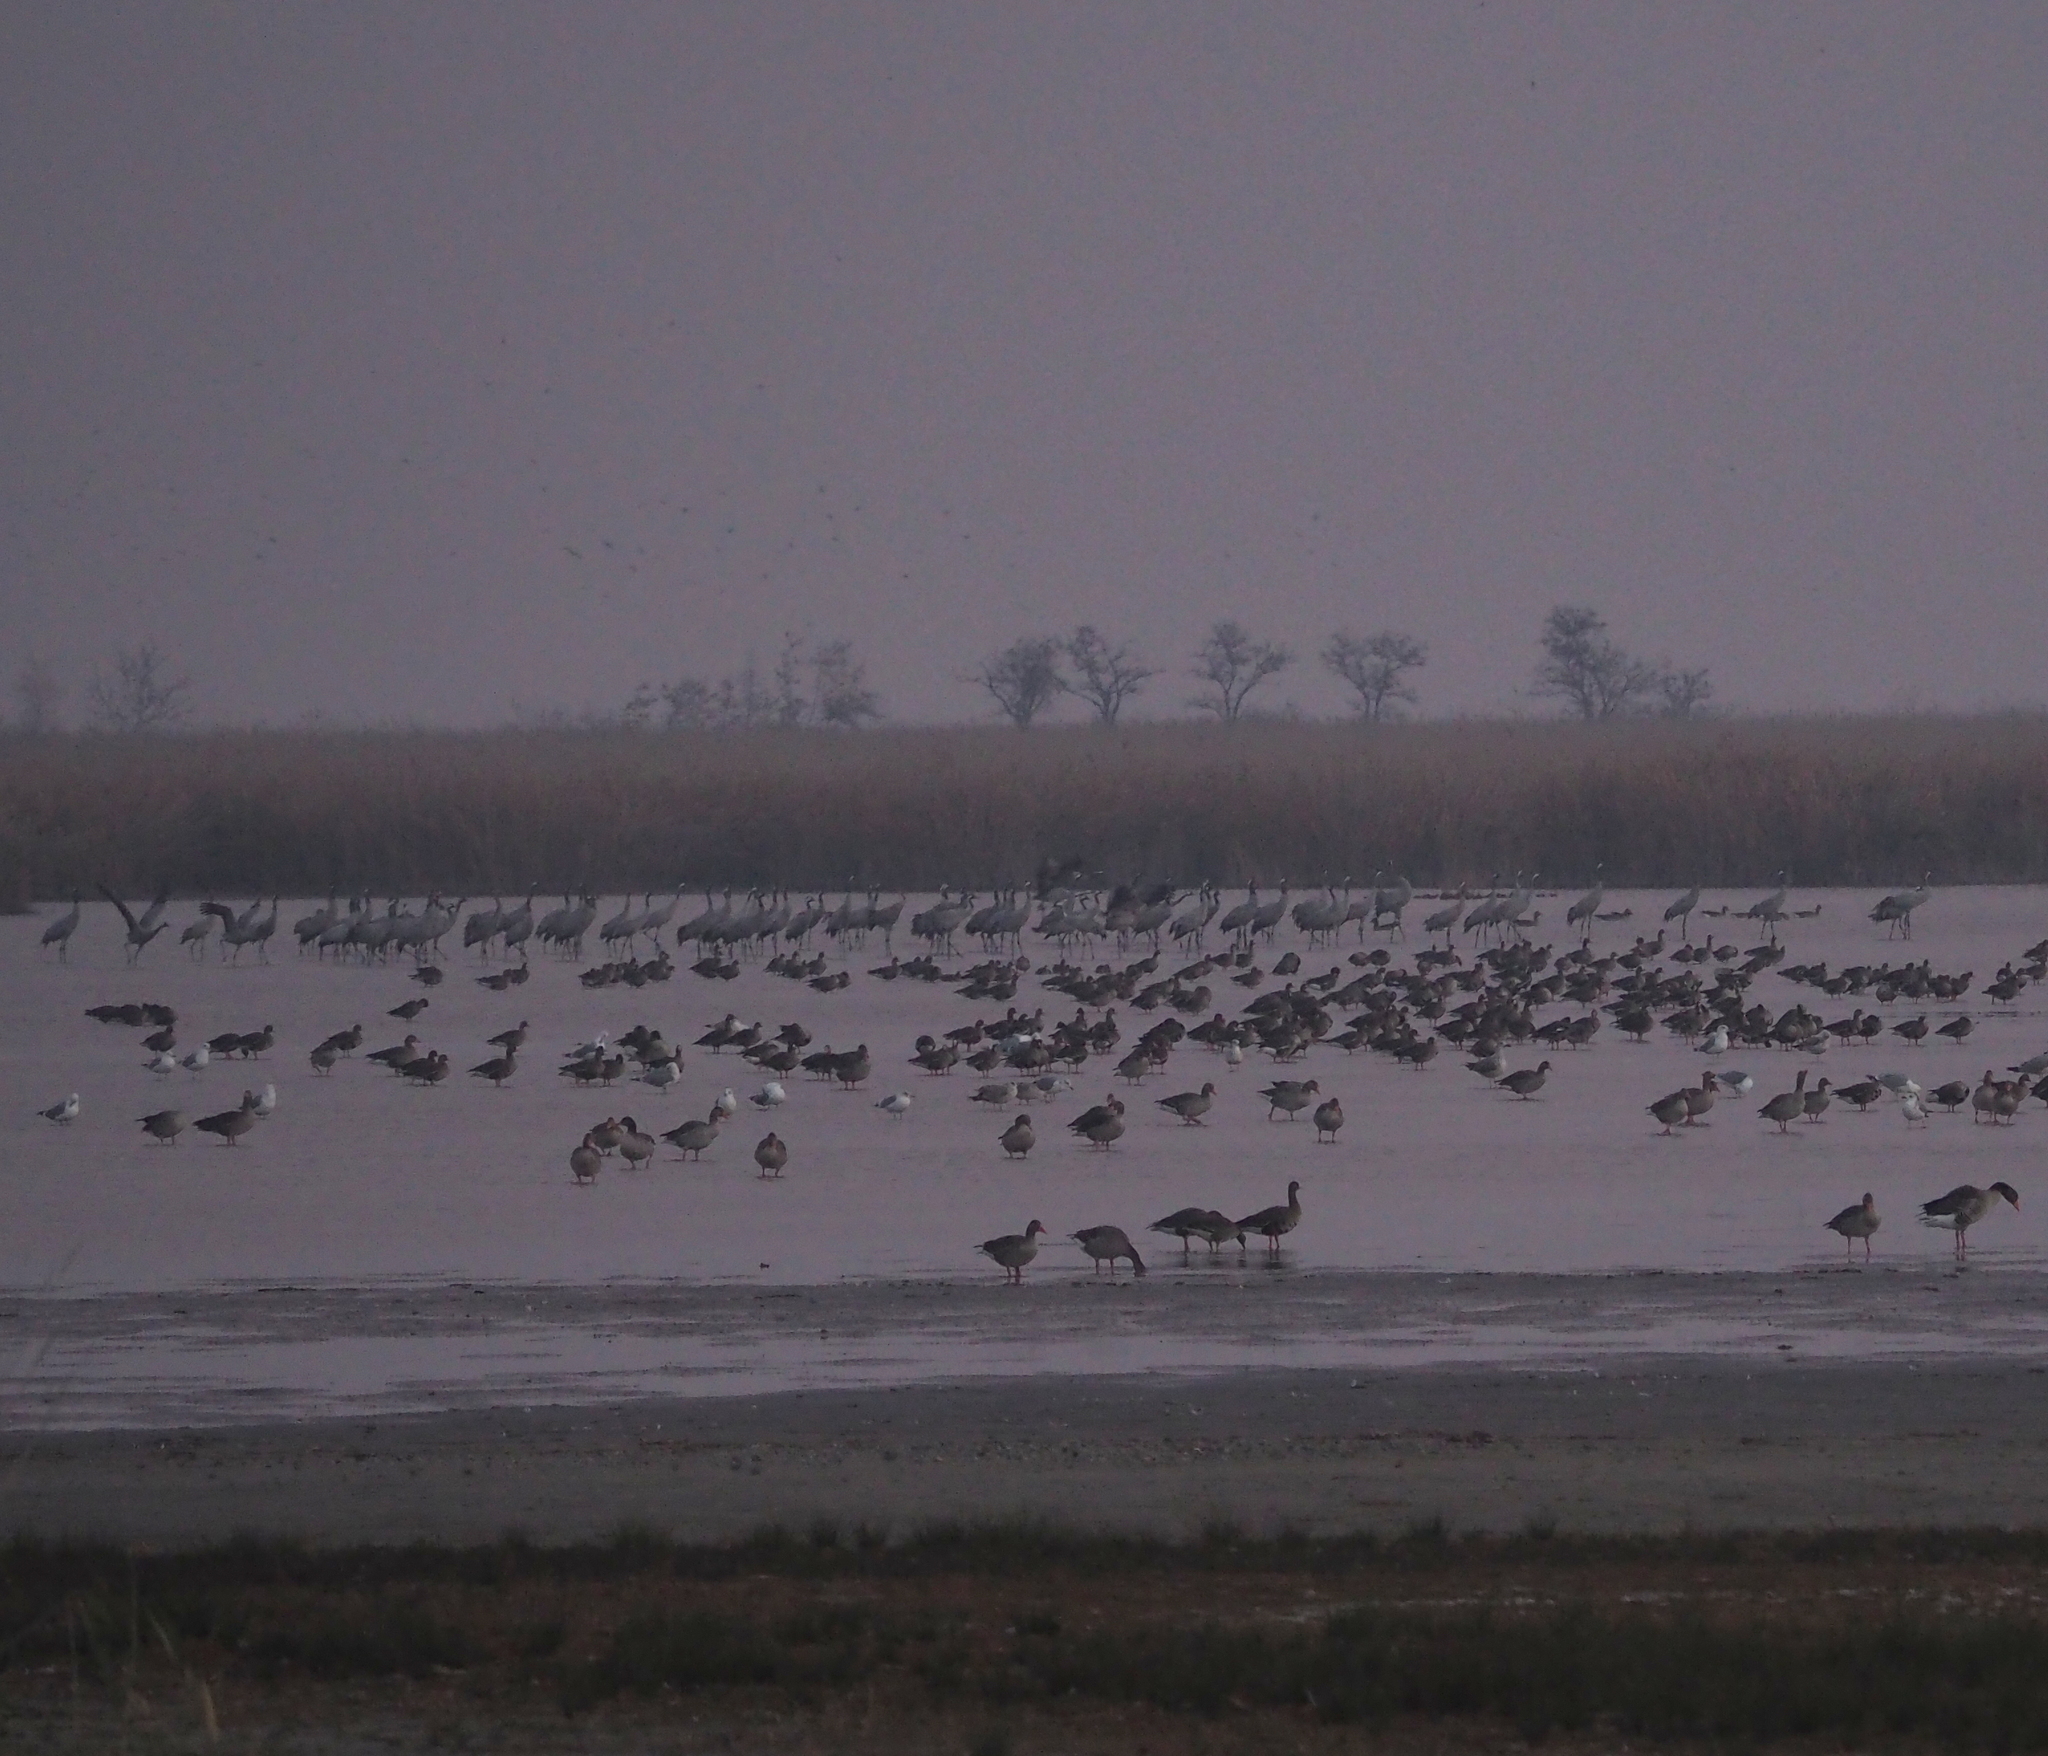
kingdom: Animalia
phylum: Chordata
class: Aves
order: Gruiformes
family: Gruidae
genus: Grus
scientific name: Grus grus
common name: Common crane
